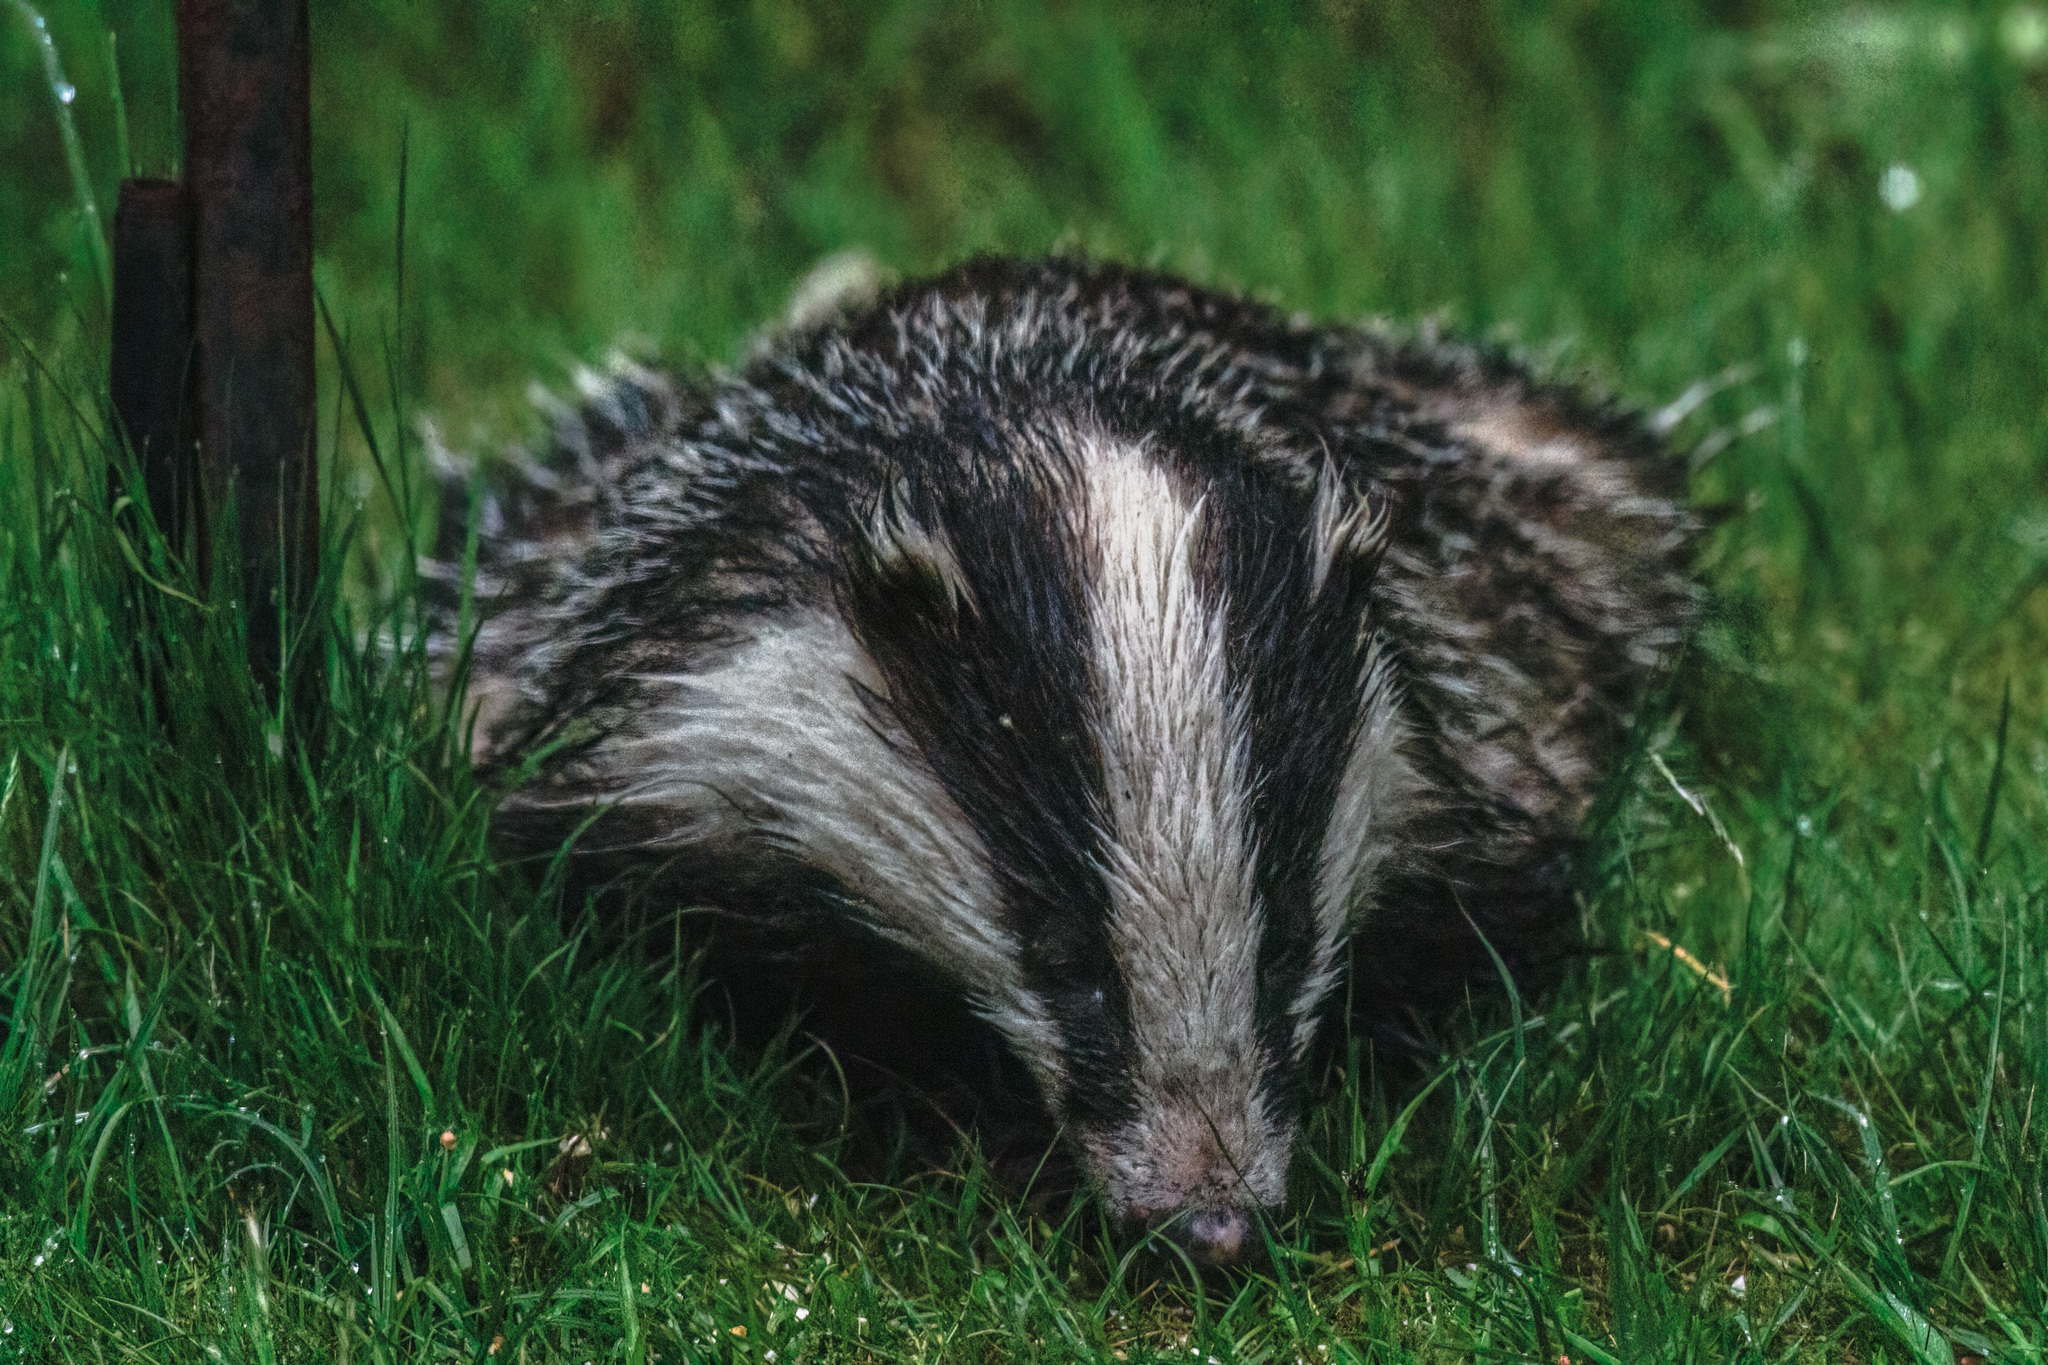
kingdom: Animalia
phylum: Chordata
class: Mammalia
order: Carnivora
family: Mustelidae
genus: Meles
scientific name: Meles meles
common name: Eurasian badger
